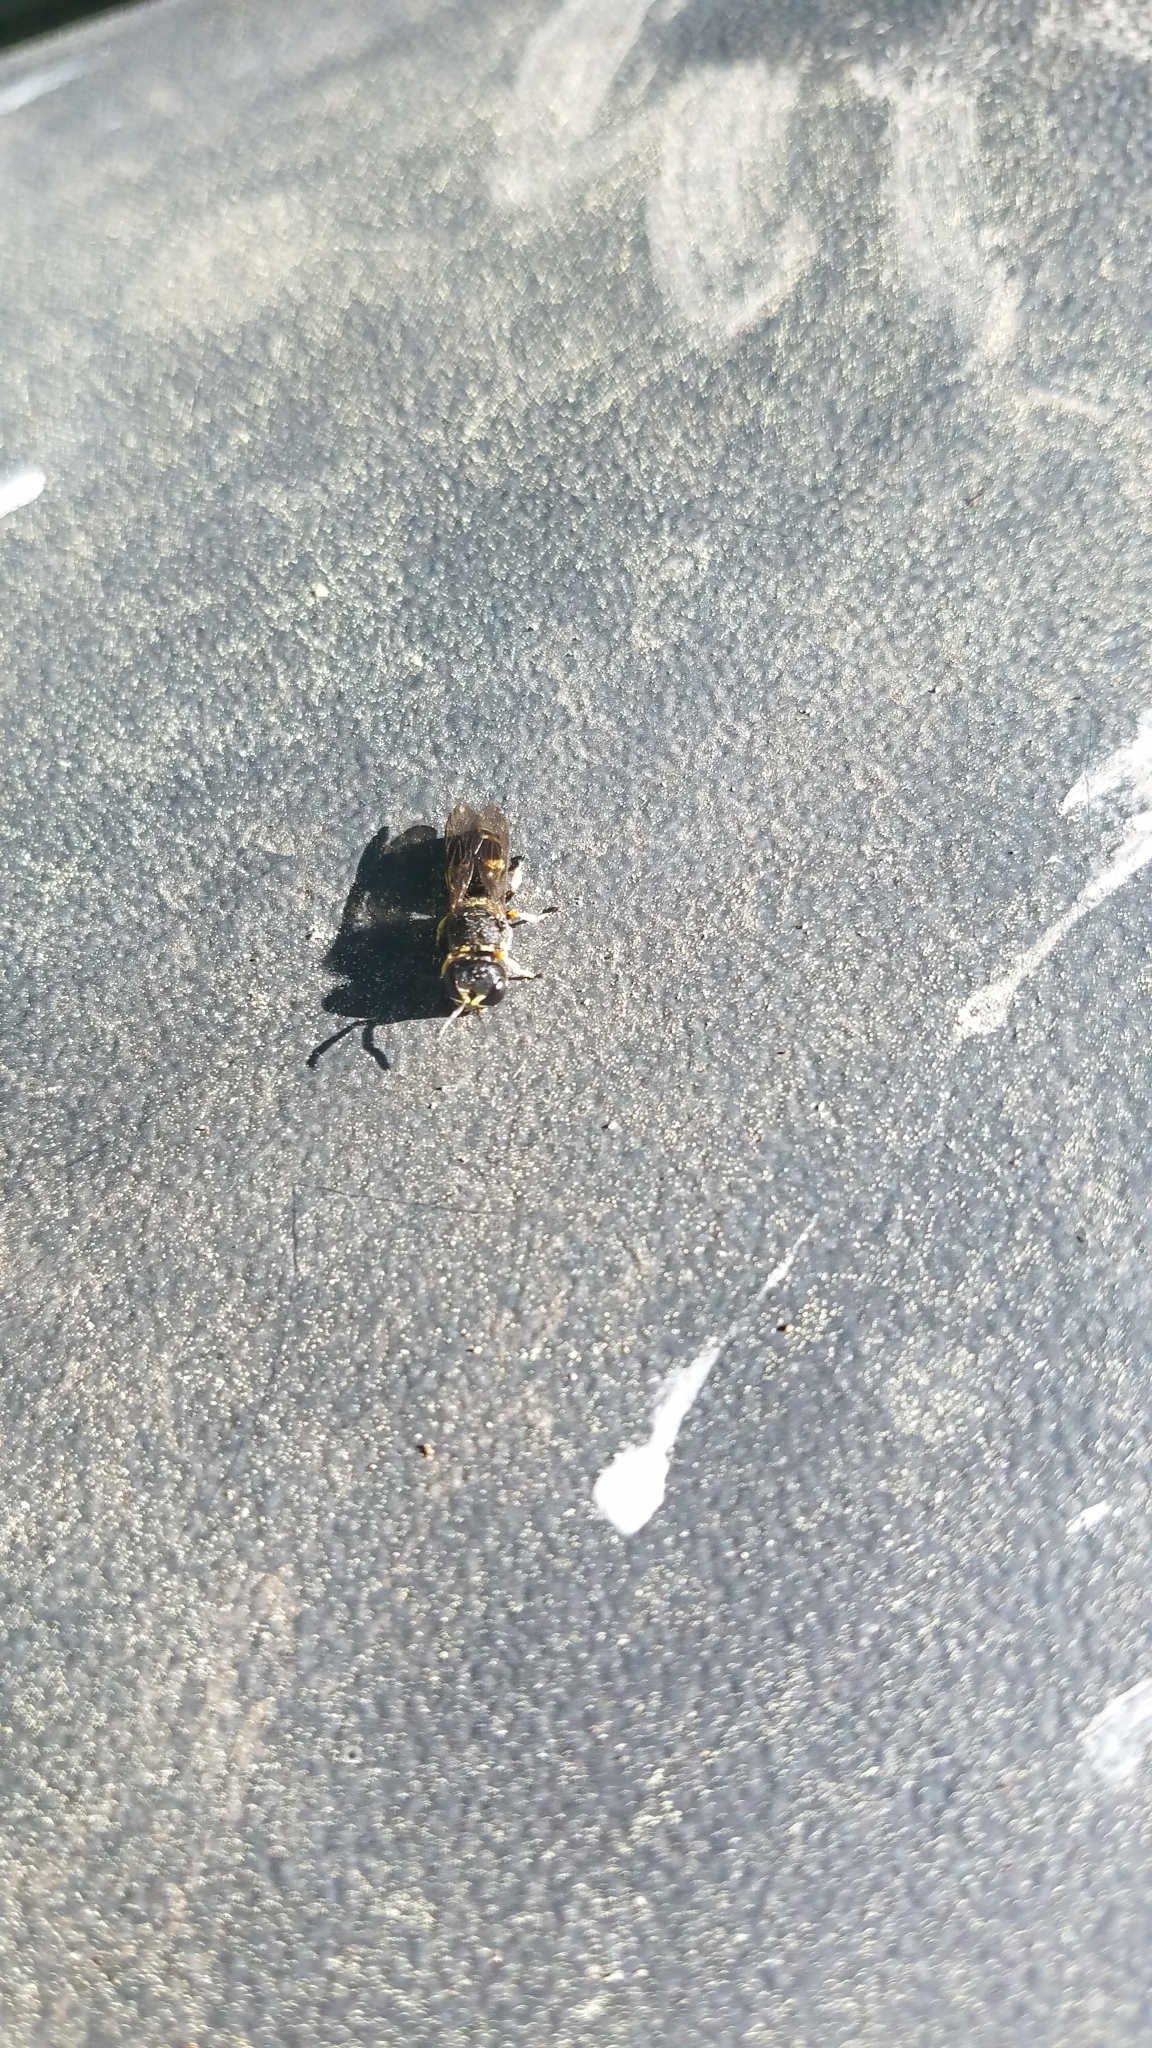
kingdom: Animalia
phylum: Arthropoda
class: Insecta
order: Hymenoptera
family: Crabronidae
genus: Ectemnius
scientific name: Ectemnius continuus
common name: Common ectemnius
